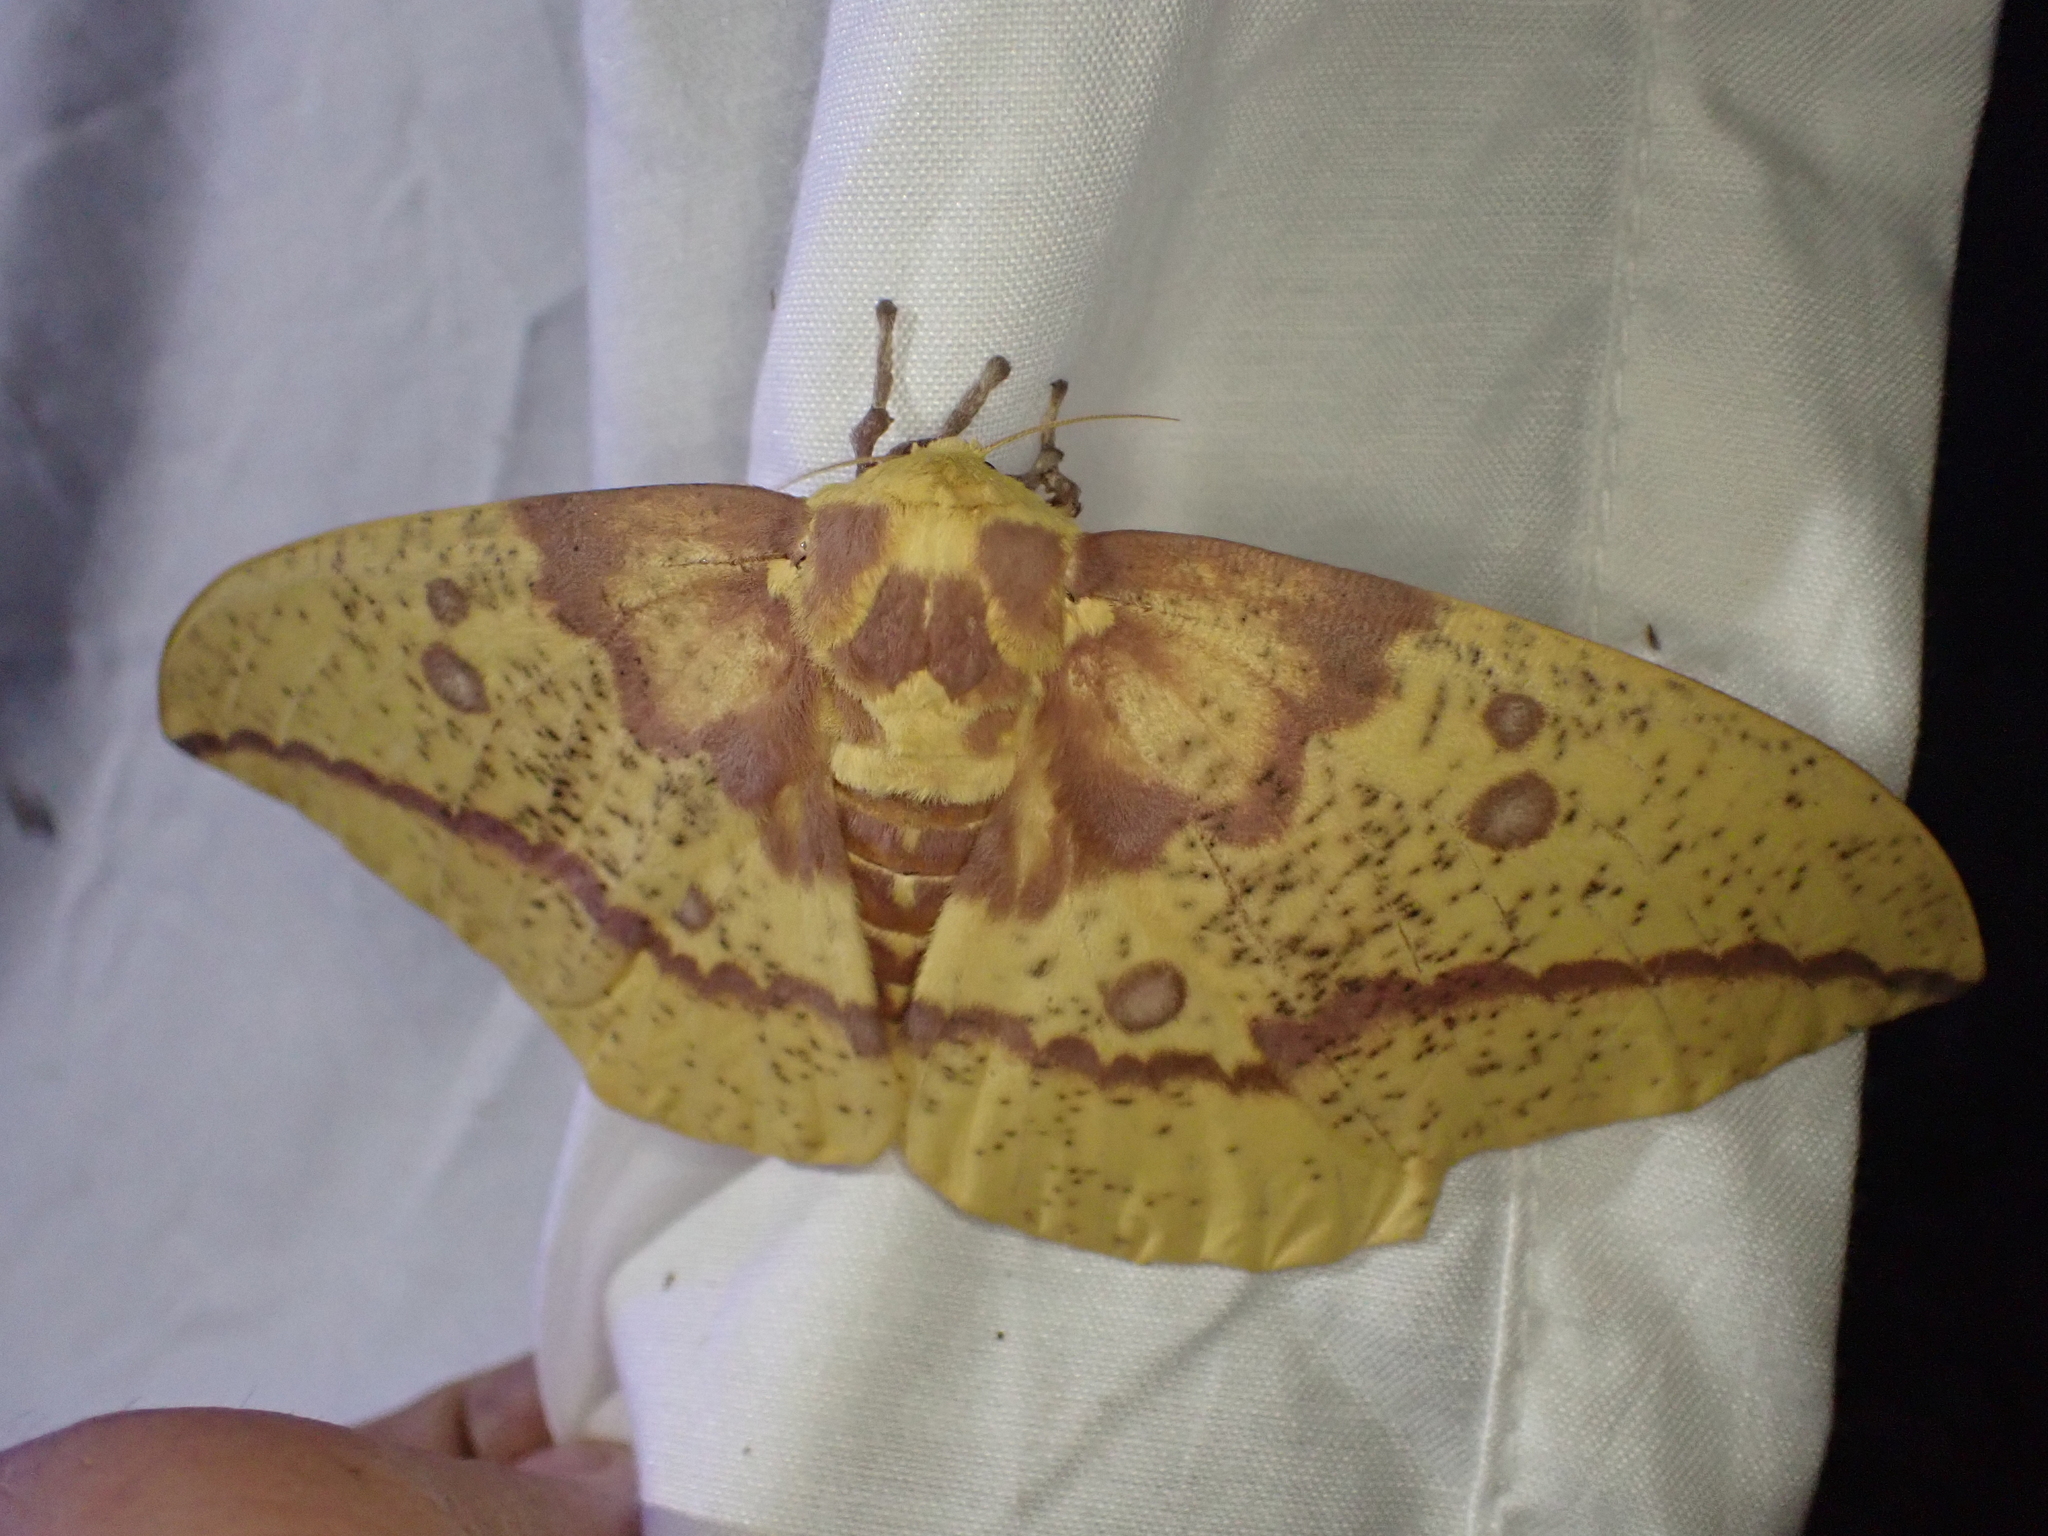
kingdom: Animalia
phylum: Arthropoda
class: Insecta
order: Lepidoptera
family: Saturniidae
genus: Eacles
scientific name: Eacles imperialis
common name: Imperial moth
